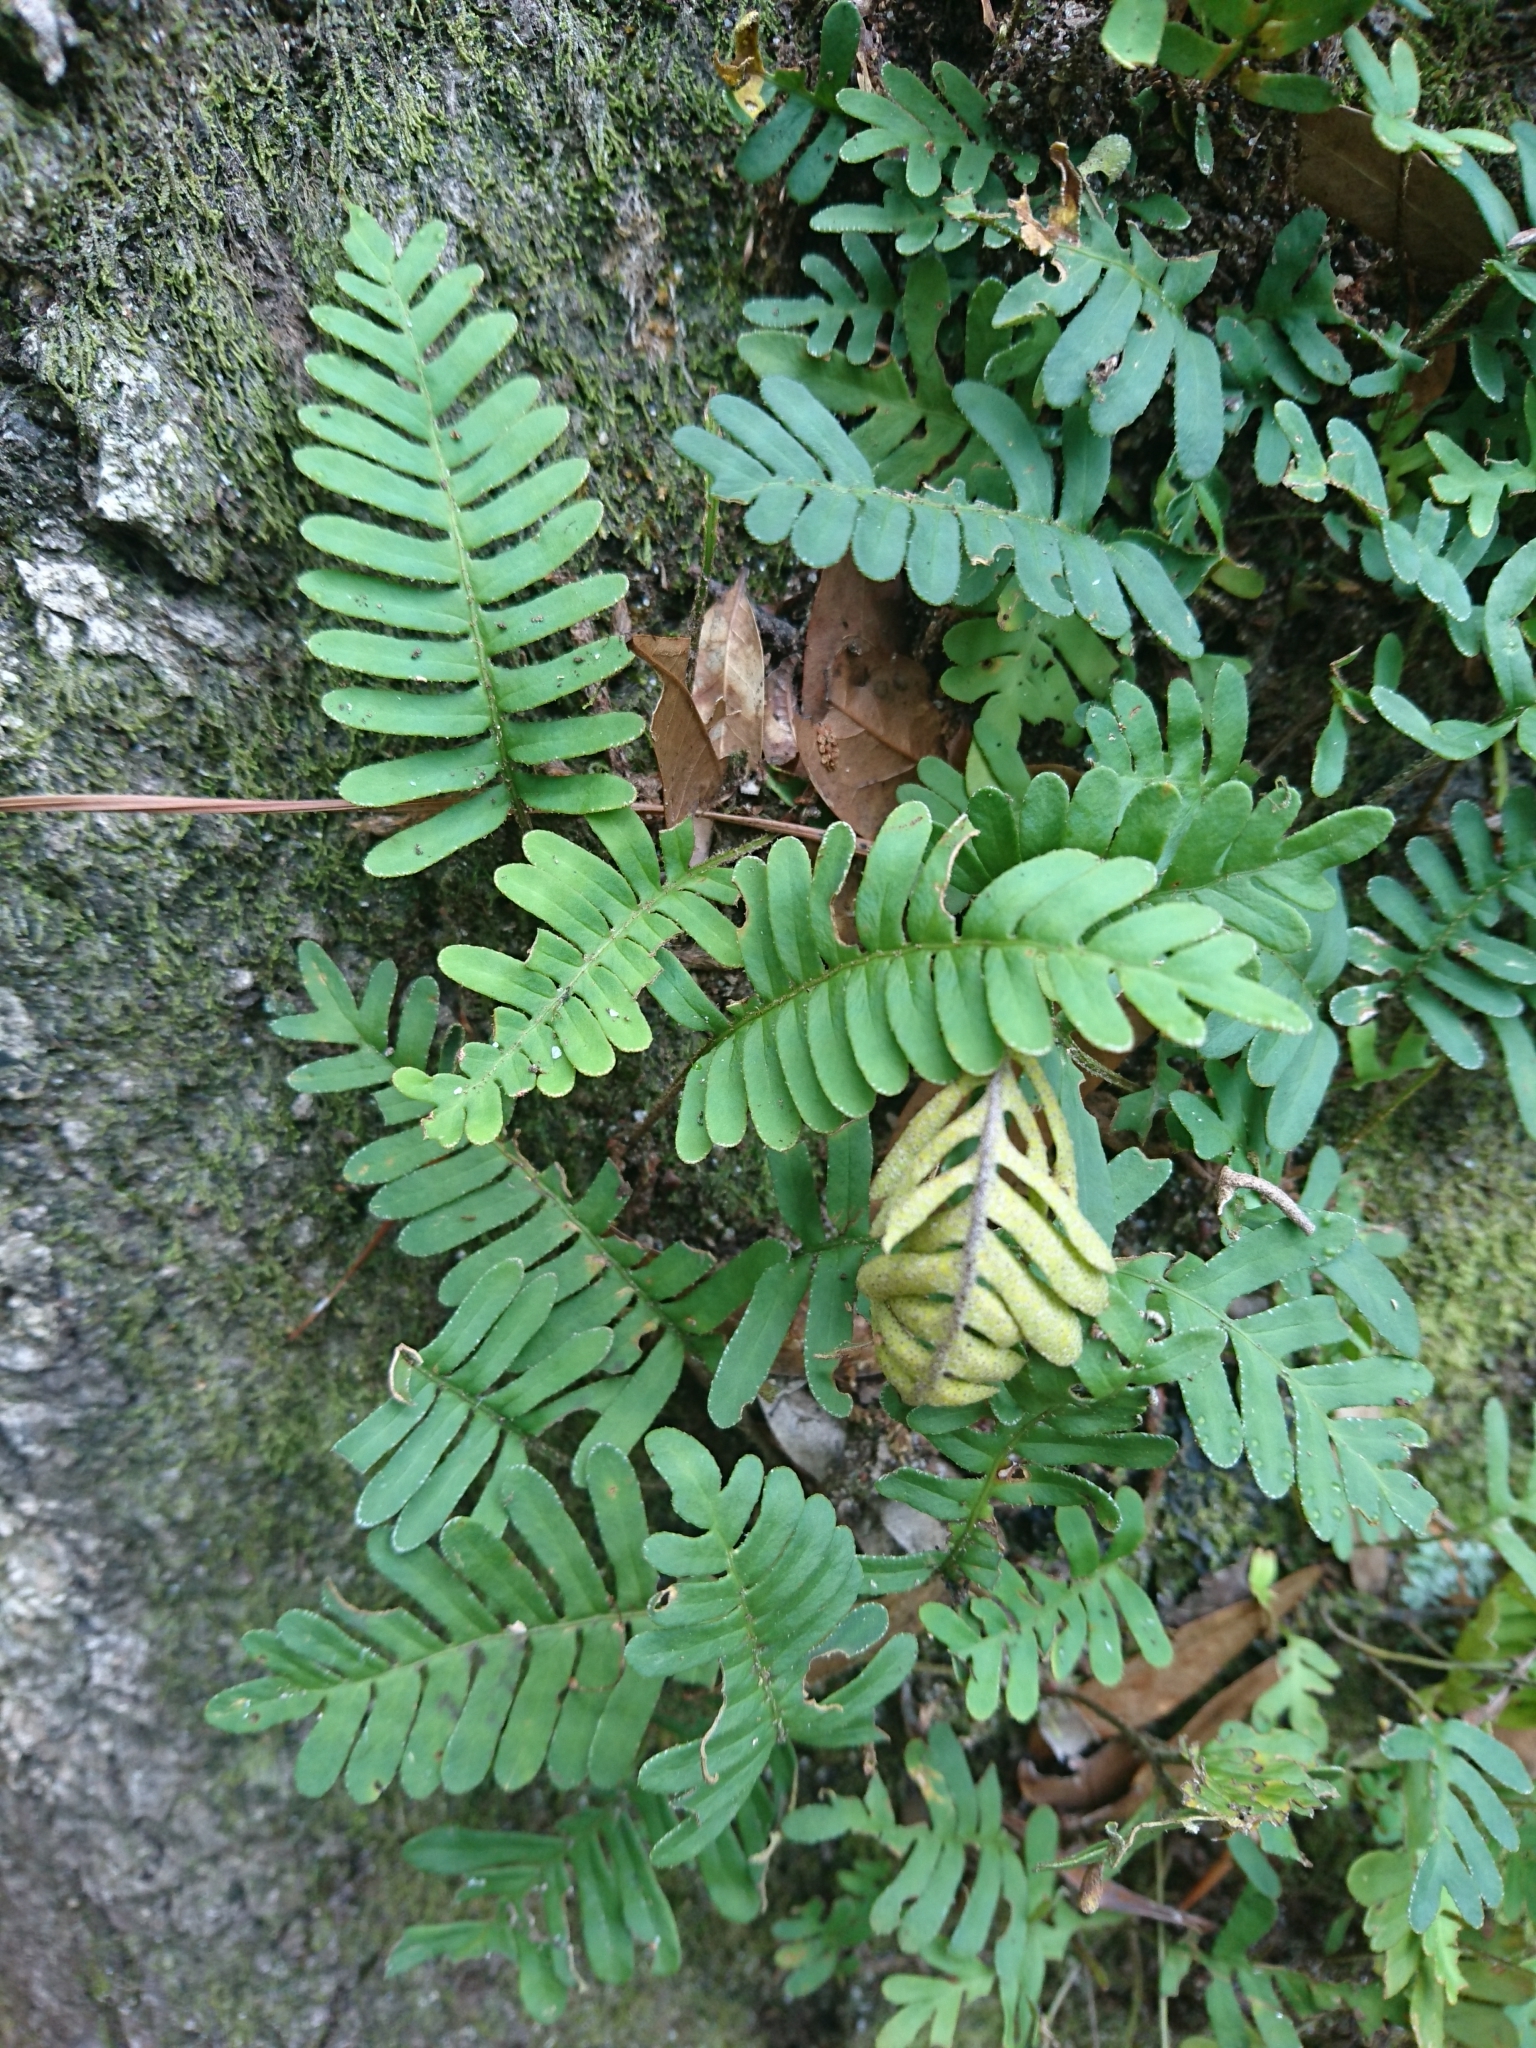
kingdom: Plantae
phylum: Tracheophyta
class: Polypodiopsida
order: Polypodiales
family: Polypodiaceae
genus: Pleopeltis
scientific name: Pleopeltis michauxiana
